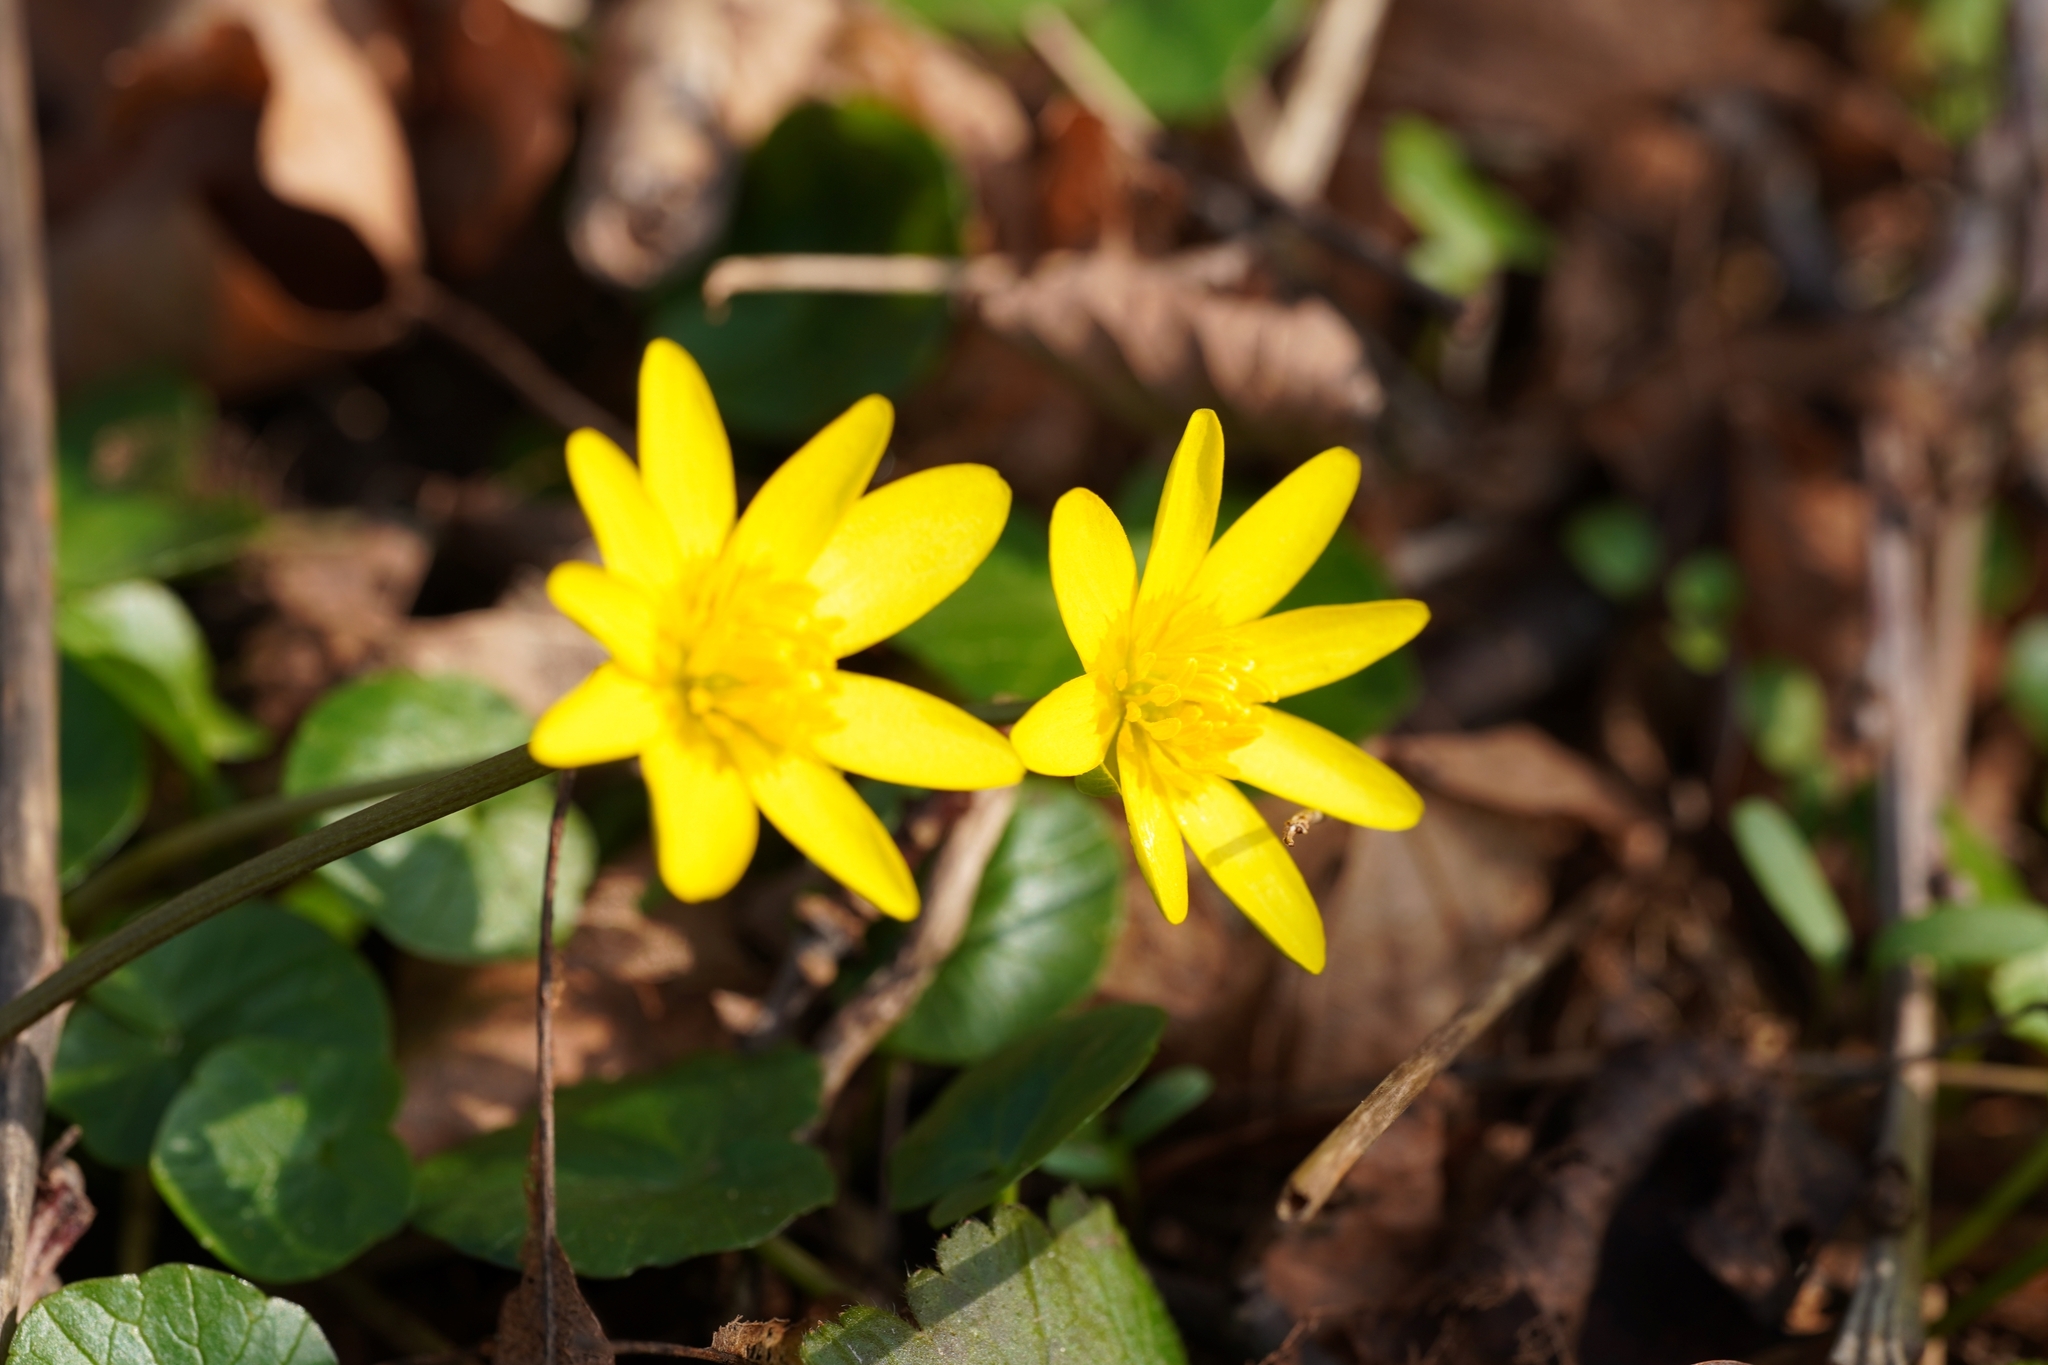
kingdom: Plantae
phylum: Tracheophyta
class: Magnoliopsida
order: Ranunculales
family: Ranunculaceae
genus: Ficaria
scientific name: Ficaria verna
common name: Lesser celandine
